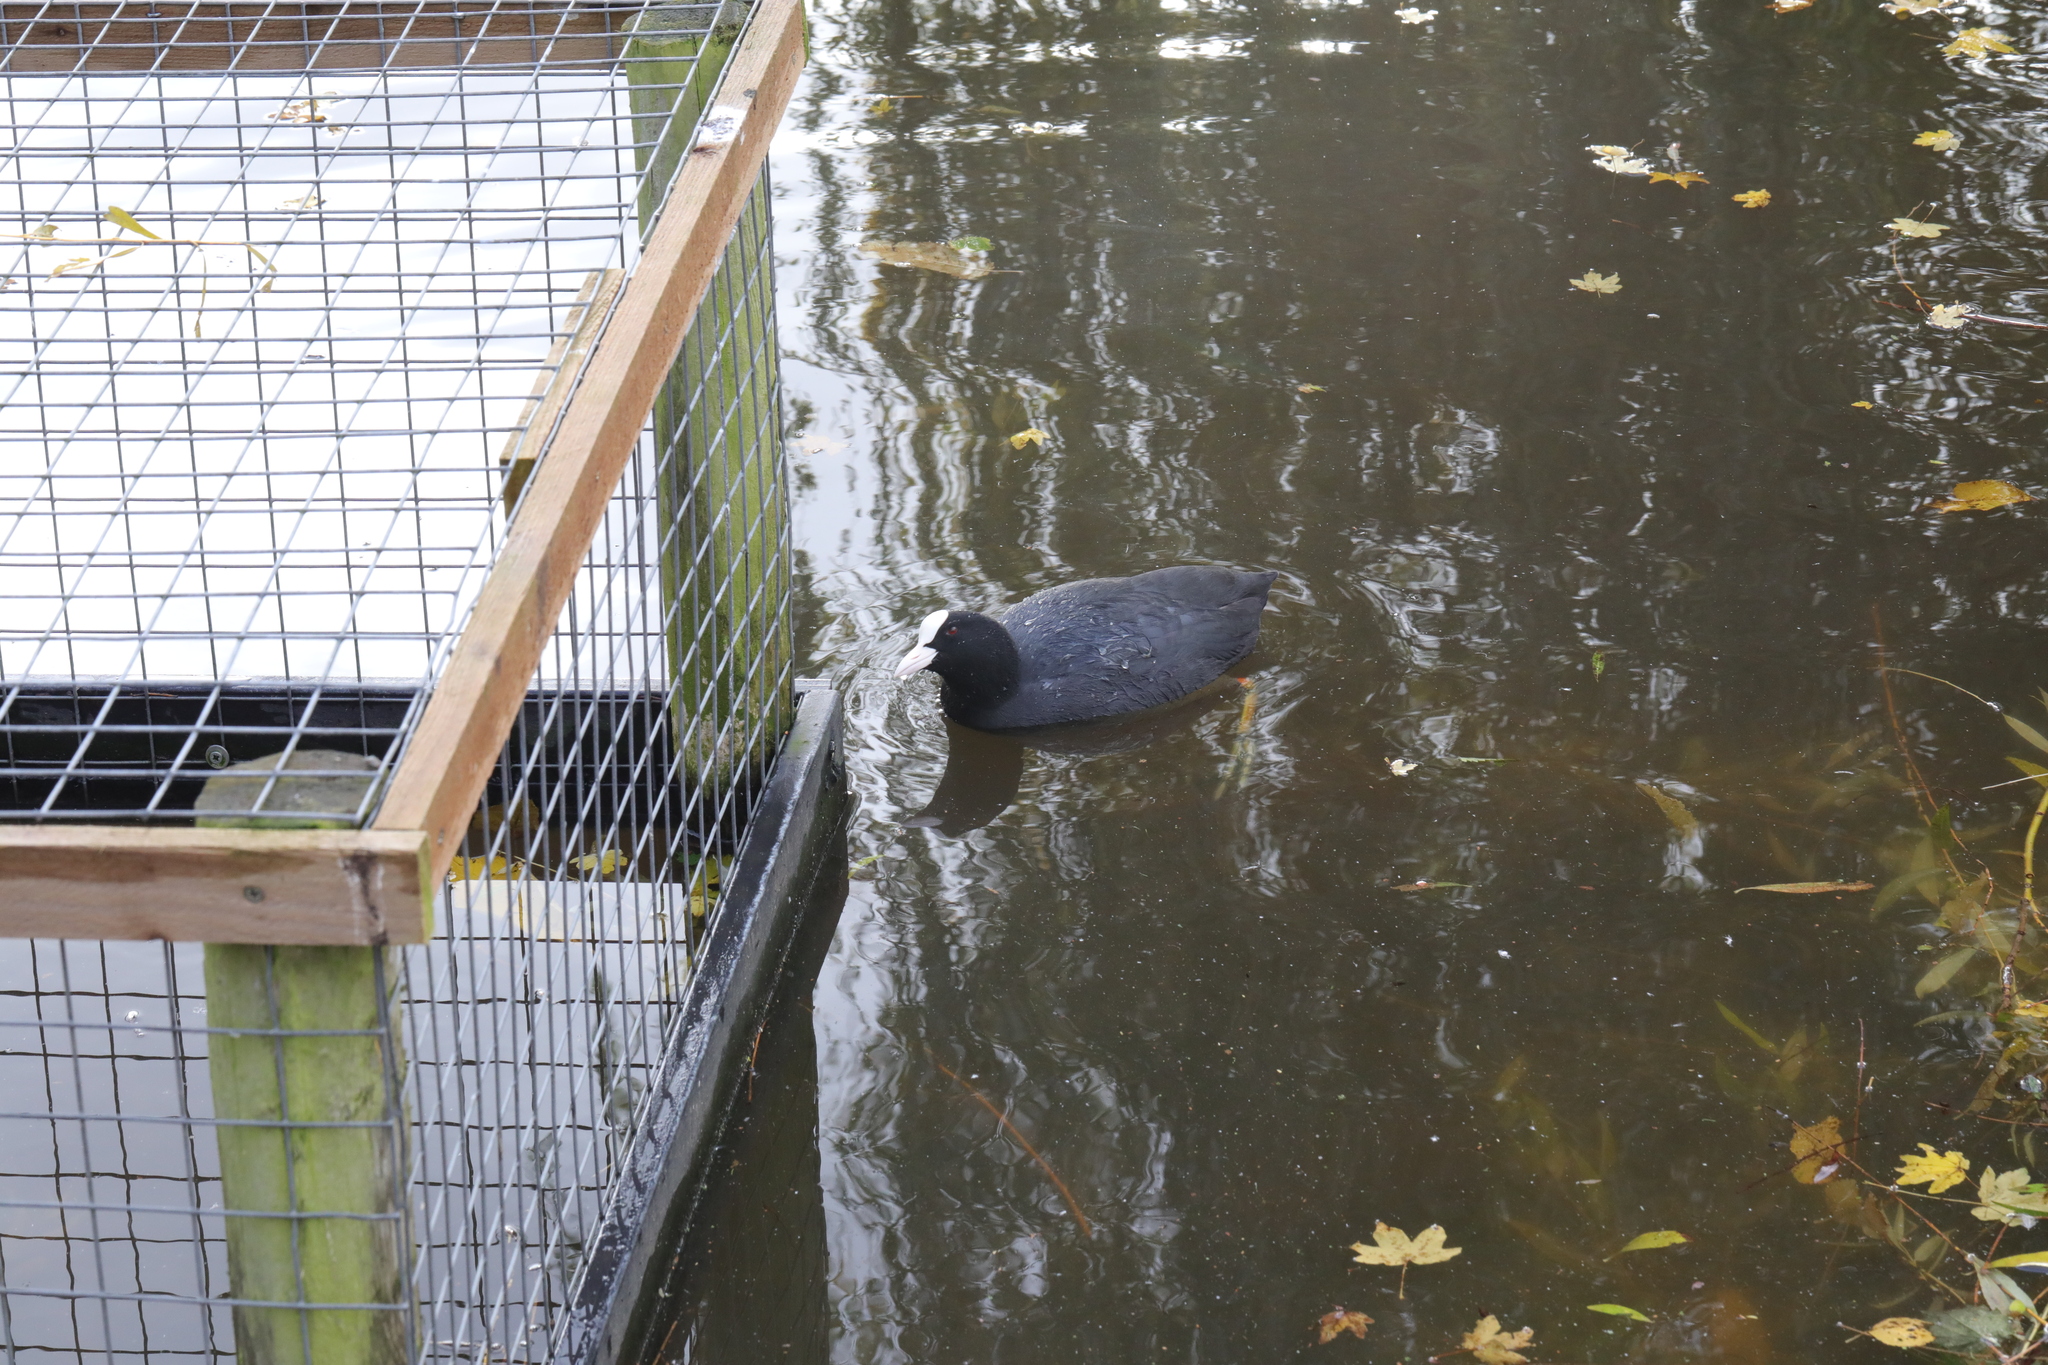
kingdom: Animalia
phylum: Chordata
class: Aves
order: Gruiformes
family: Rallidae
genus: Fulica
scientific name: Fulica atra
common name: Eurasian coot
